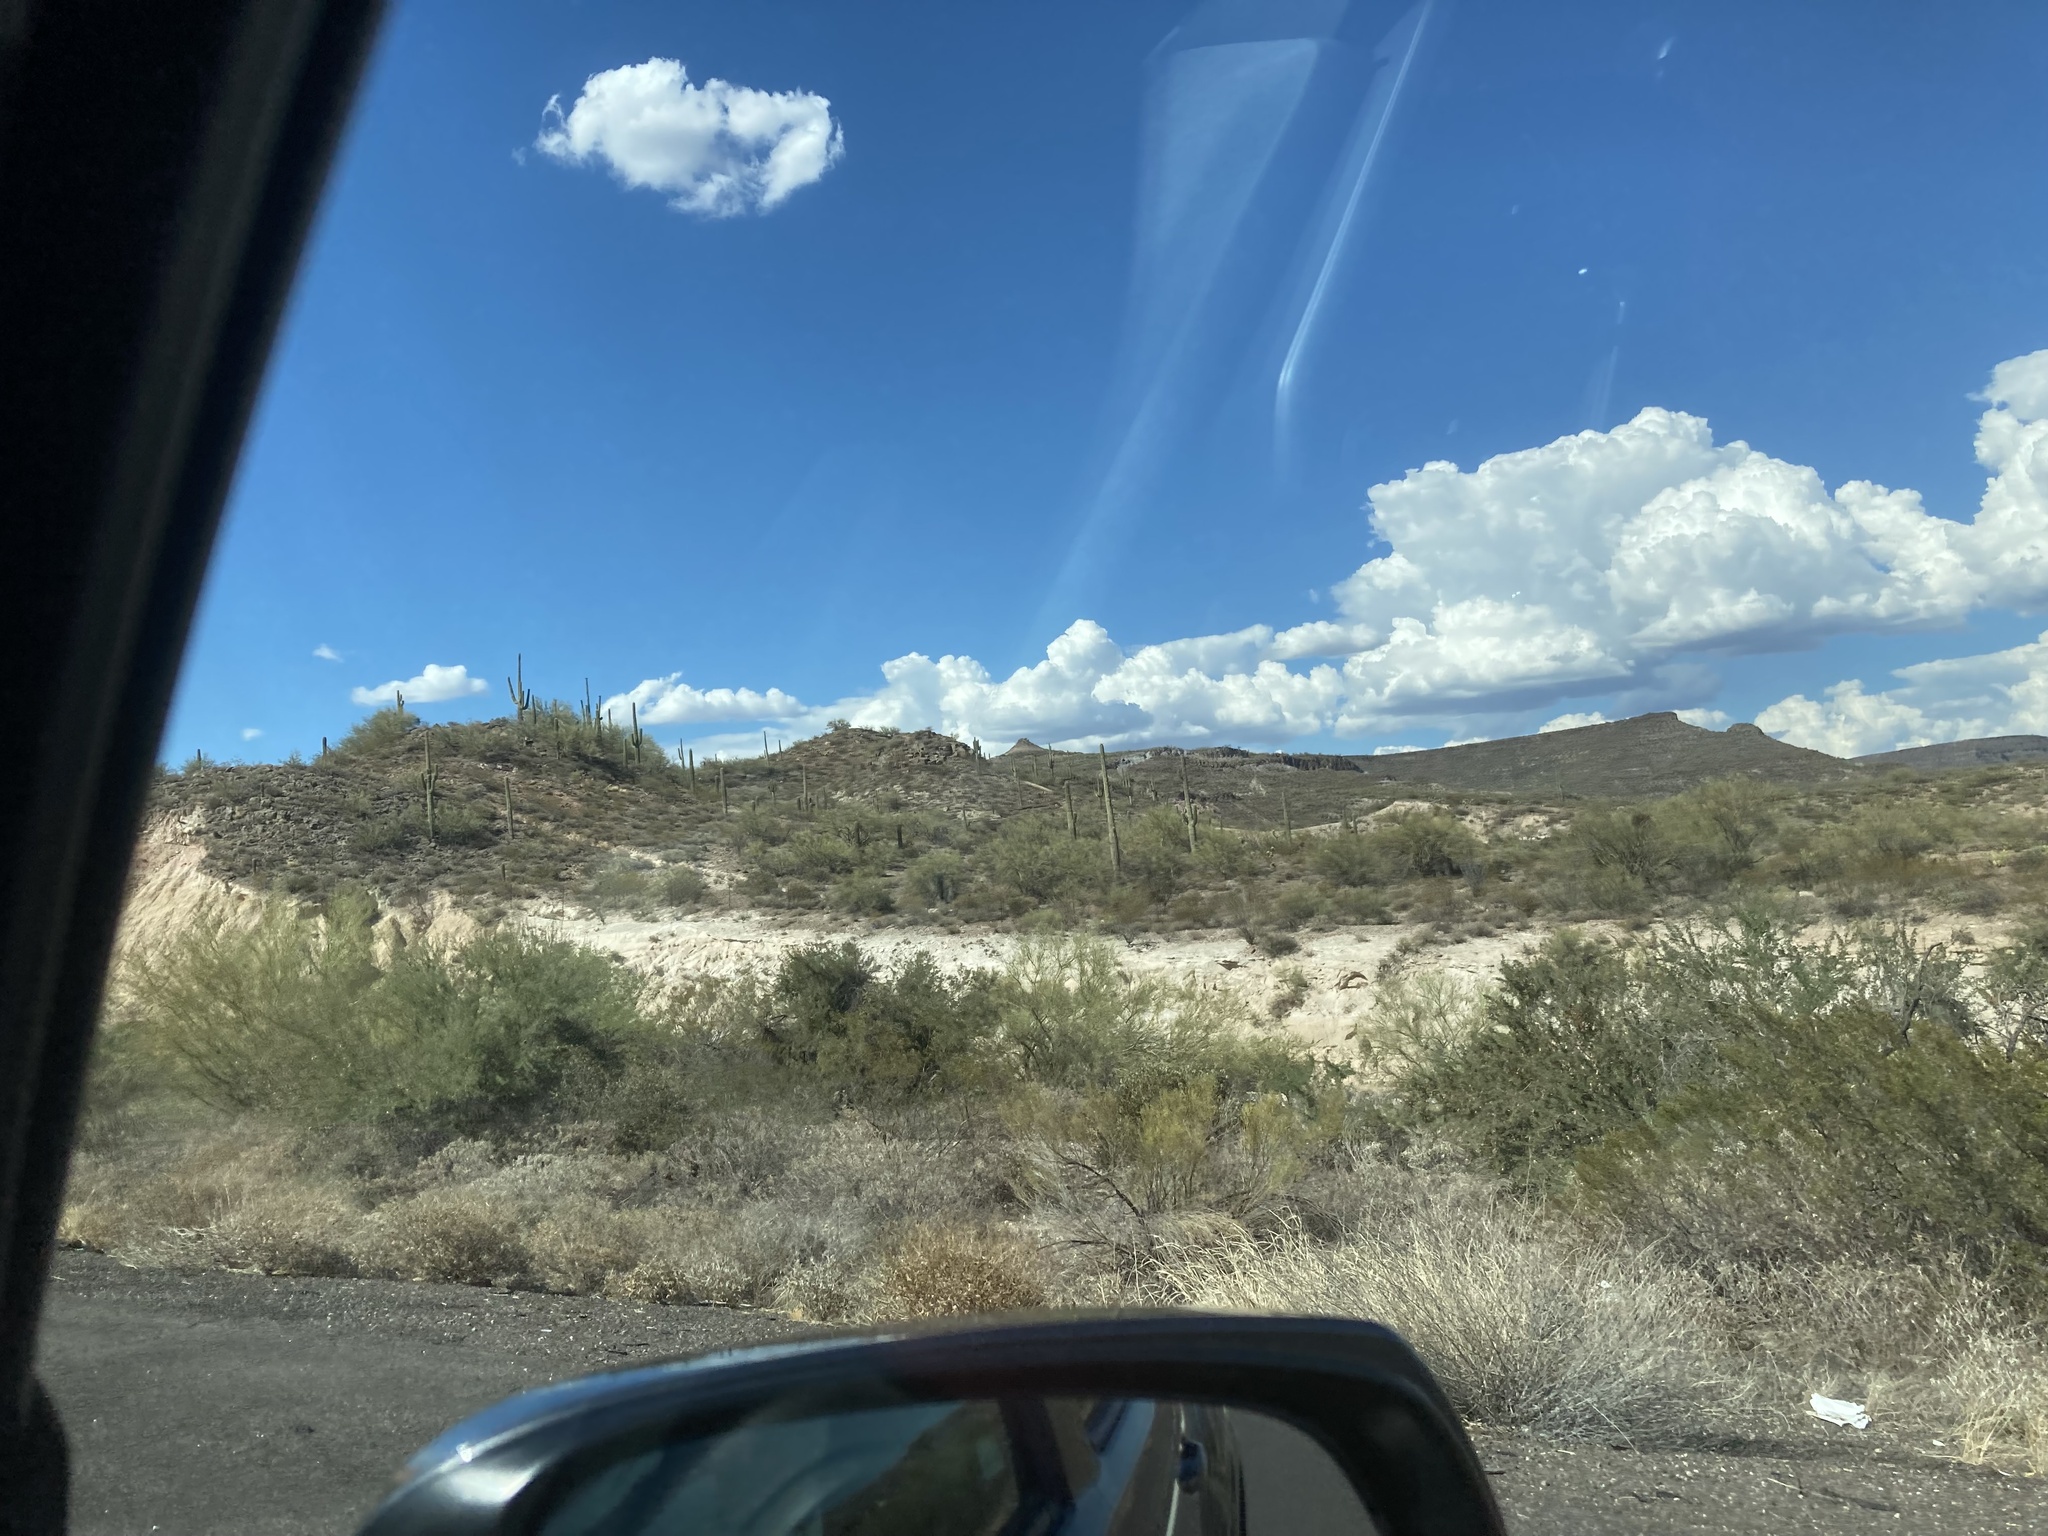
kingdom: Plantae
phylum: Tracheophyta
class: Magnoliopsida
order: Caryophyllales
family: Cactaceae
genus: Carnegiea
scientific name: Carnegiea gigantea
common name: Saguaro
